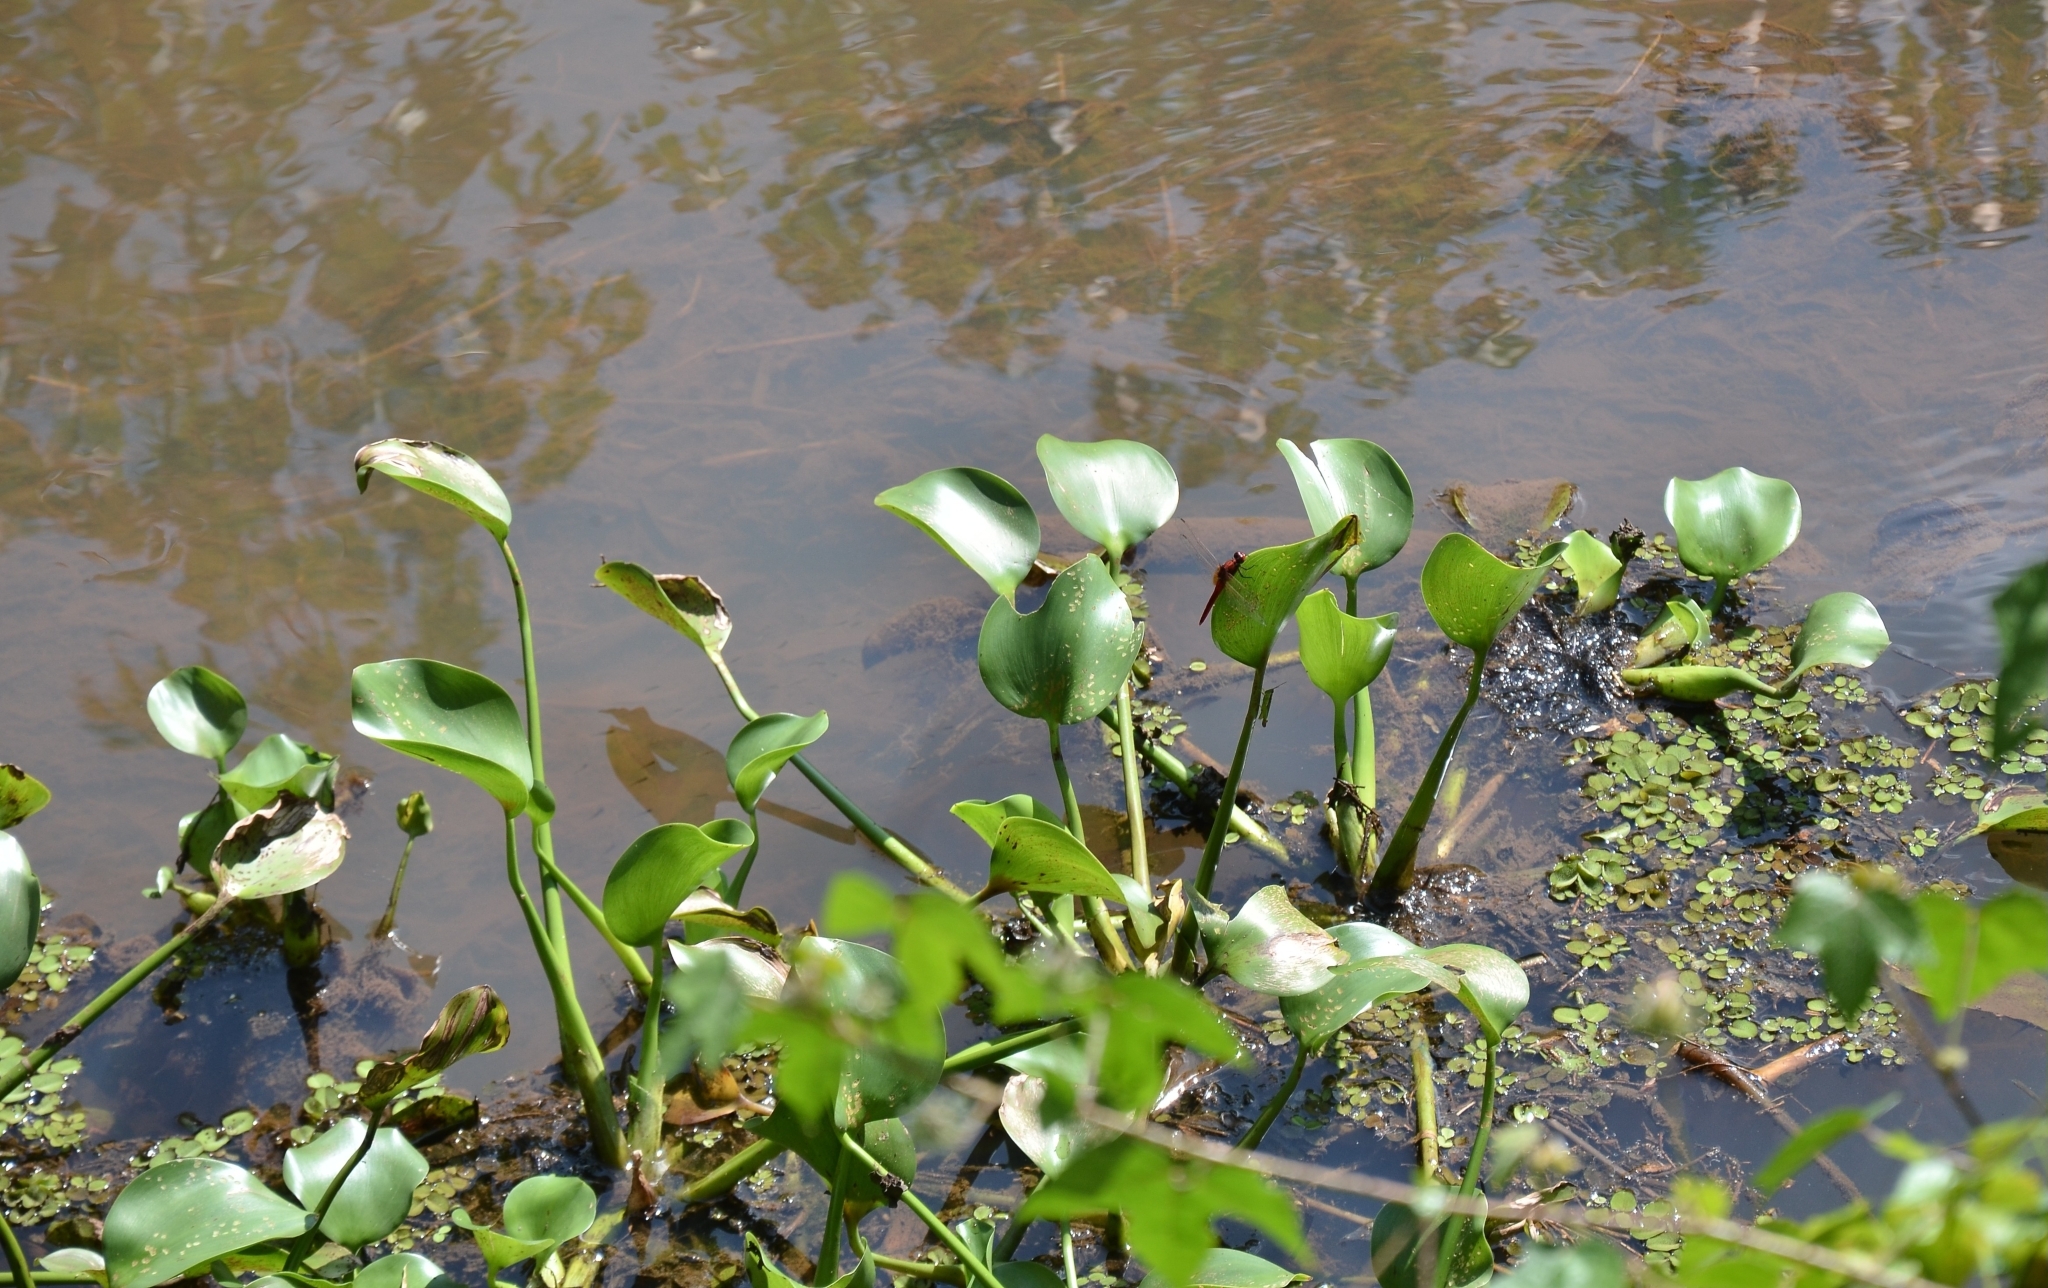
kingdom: Plantae
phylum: Tracheophyta
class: Liliopsida
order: Commelinales
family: Pontederiaceae
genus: Pontederia
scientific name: Pontederia crassipes
